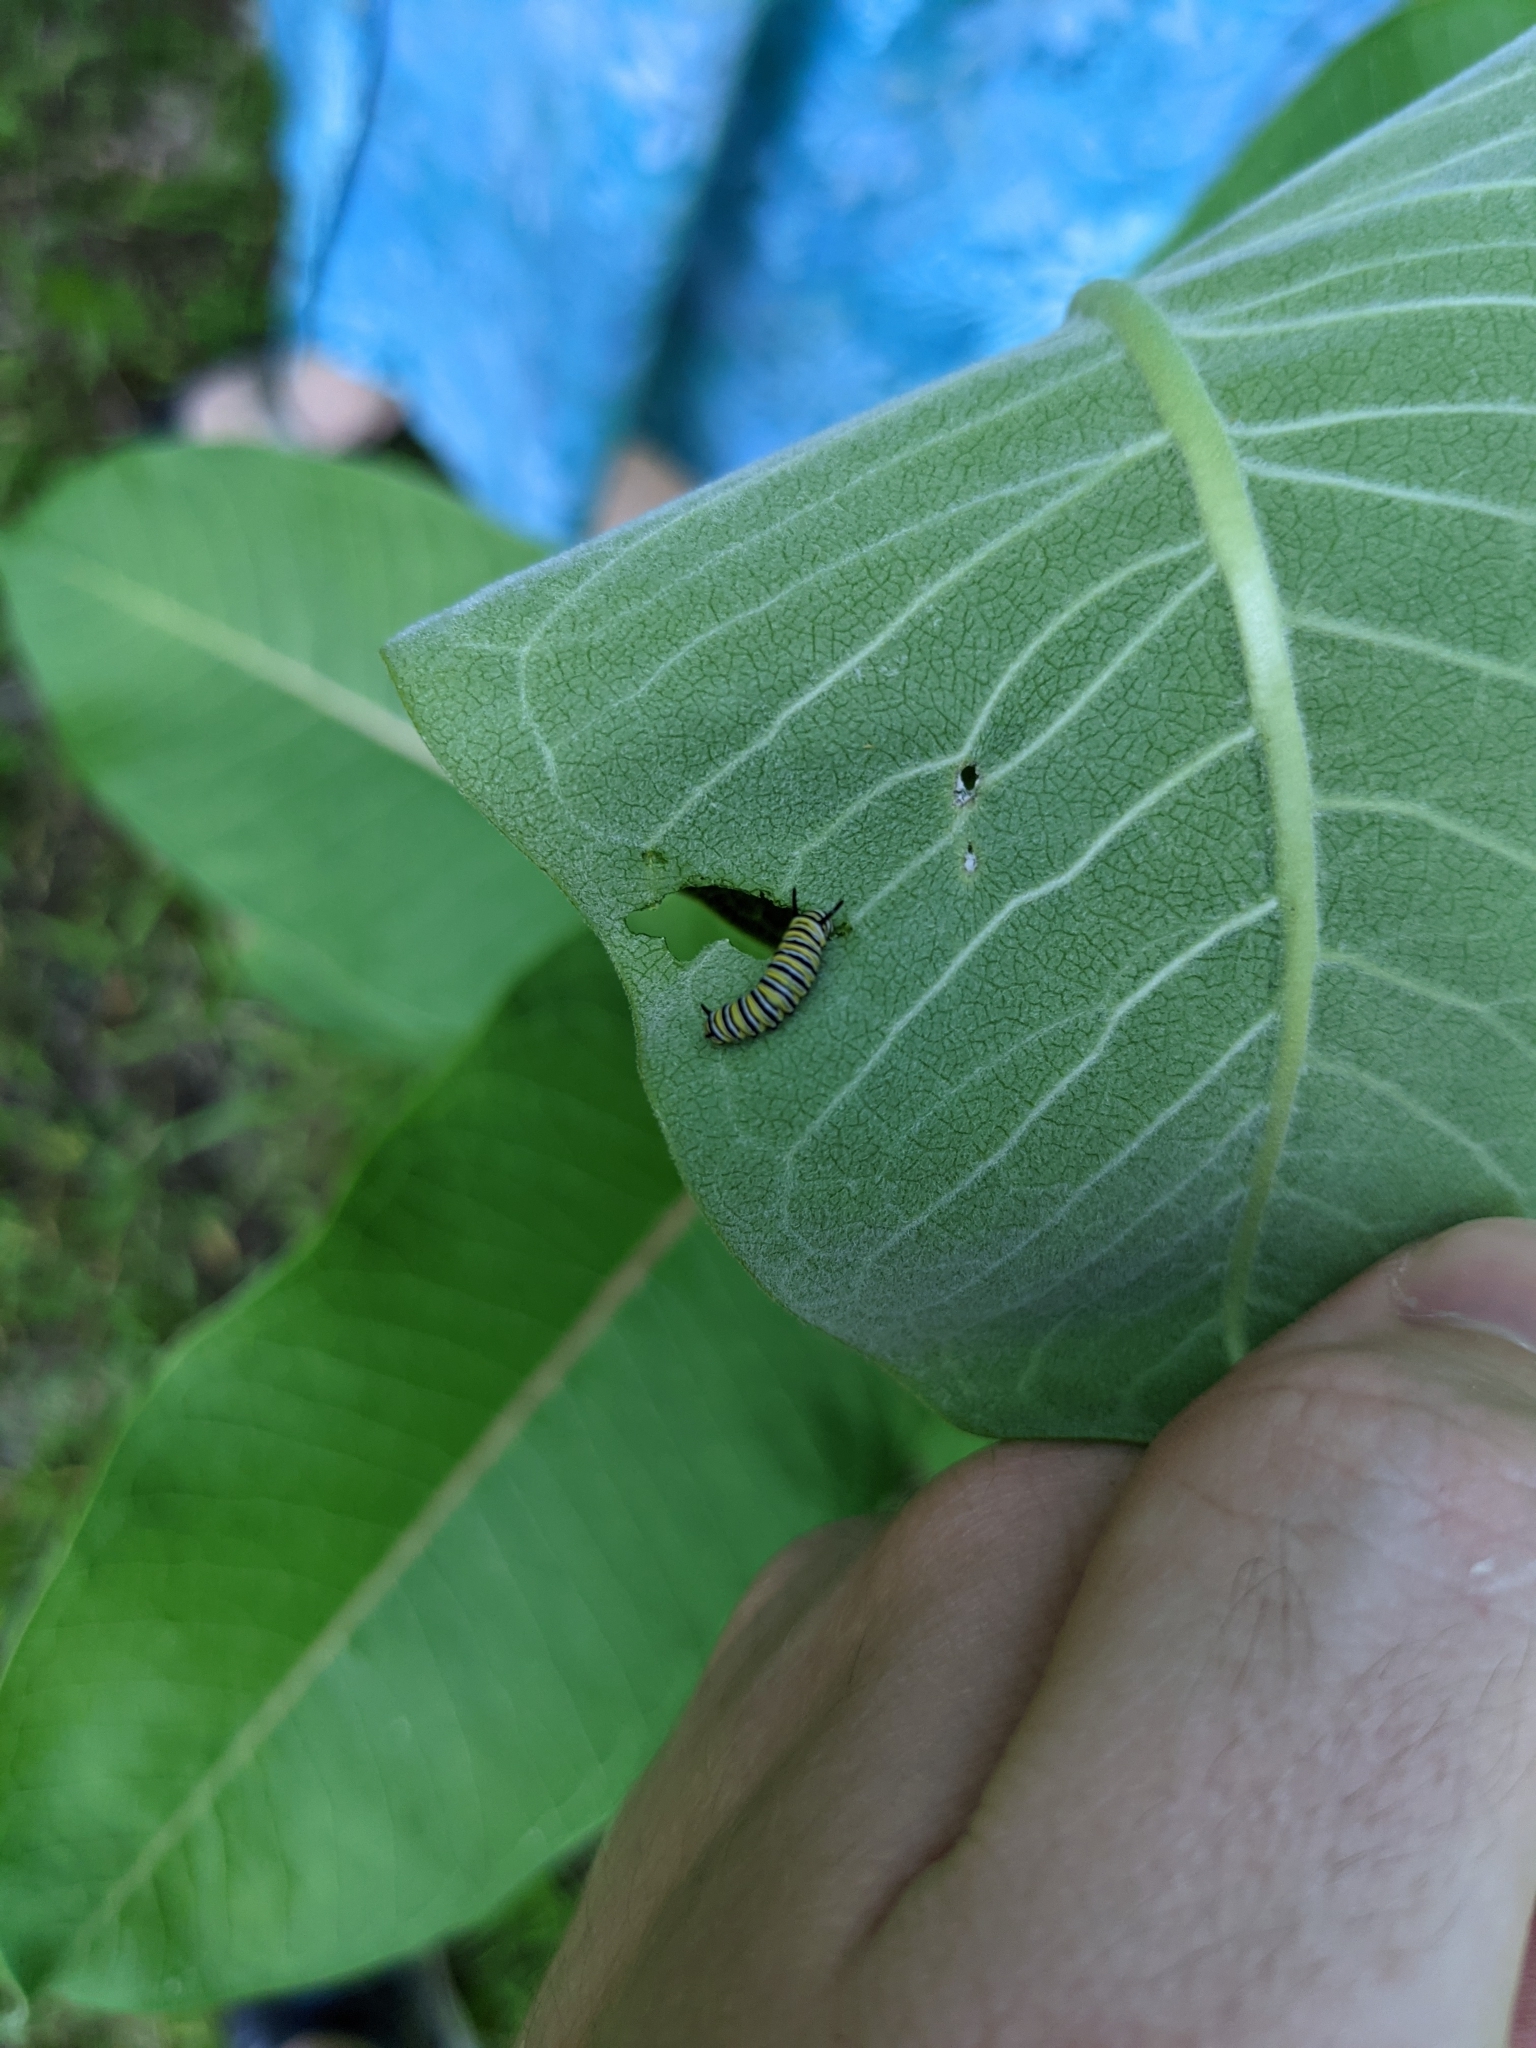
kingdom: Animalia
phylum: Arthropoda
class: Insecta
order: Lepidoptera
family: Nymphalidae
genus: Danaus
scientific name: Danaus plexippus
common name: Monarch
